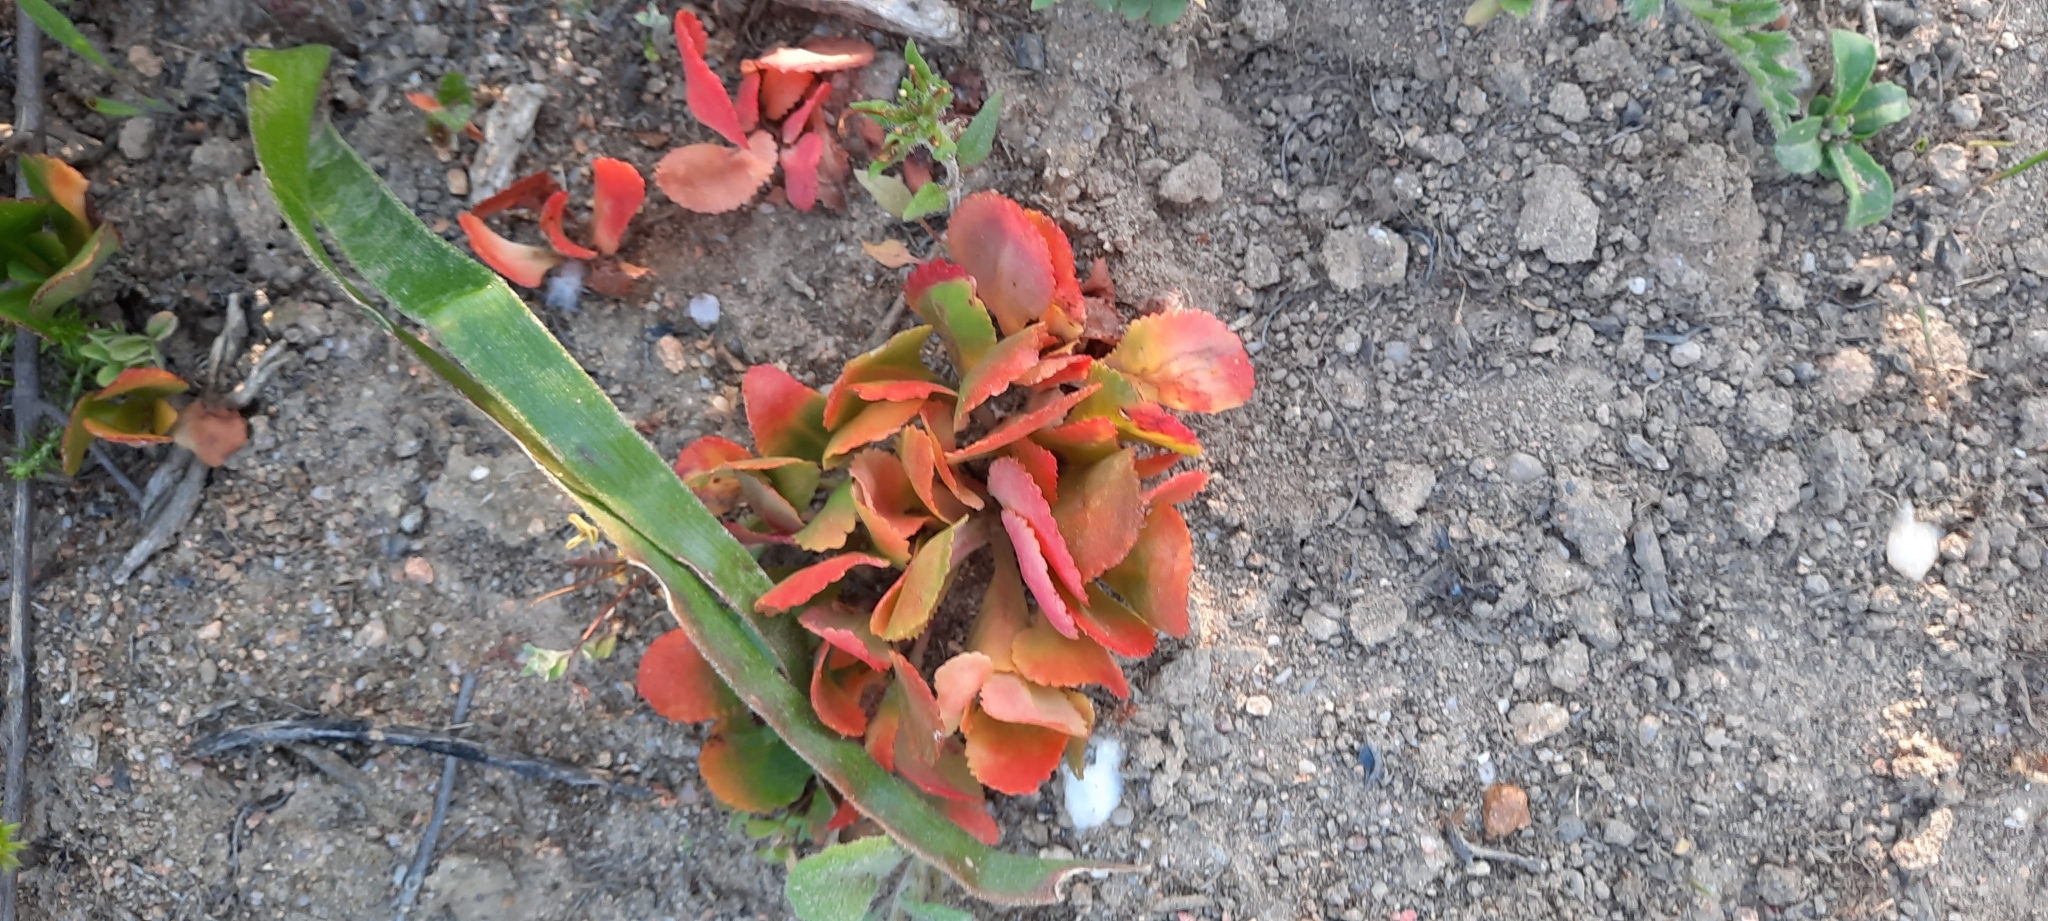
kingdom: Plantae
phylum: Tracheophyta
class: Magnoliopsida
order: Saxifragales
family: Crassulaceae
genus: Crassula
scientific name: Crassula capensis
